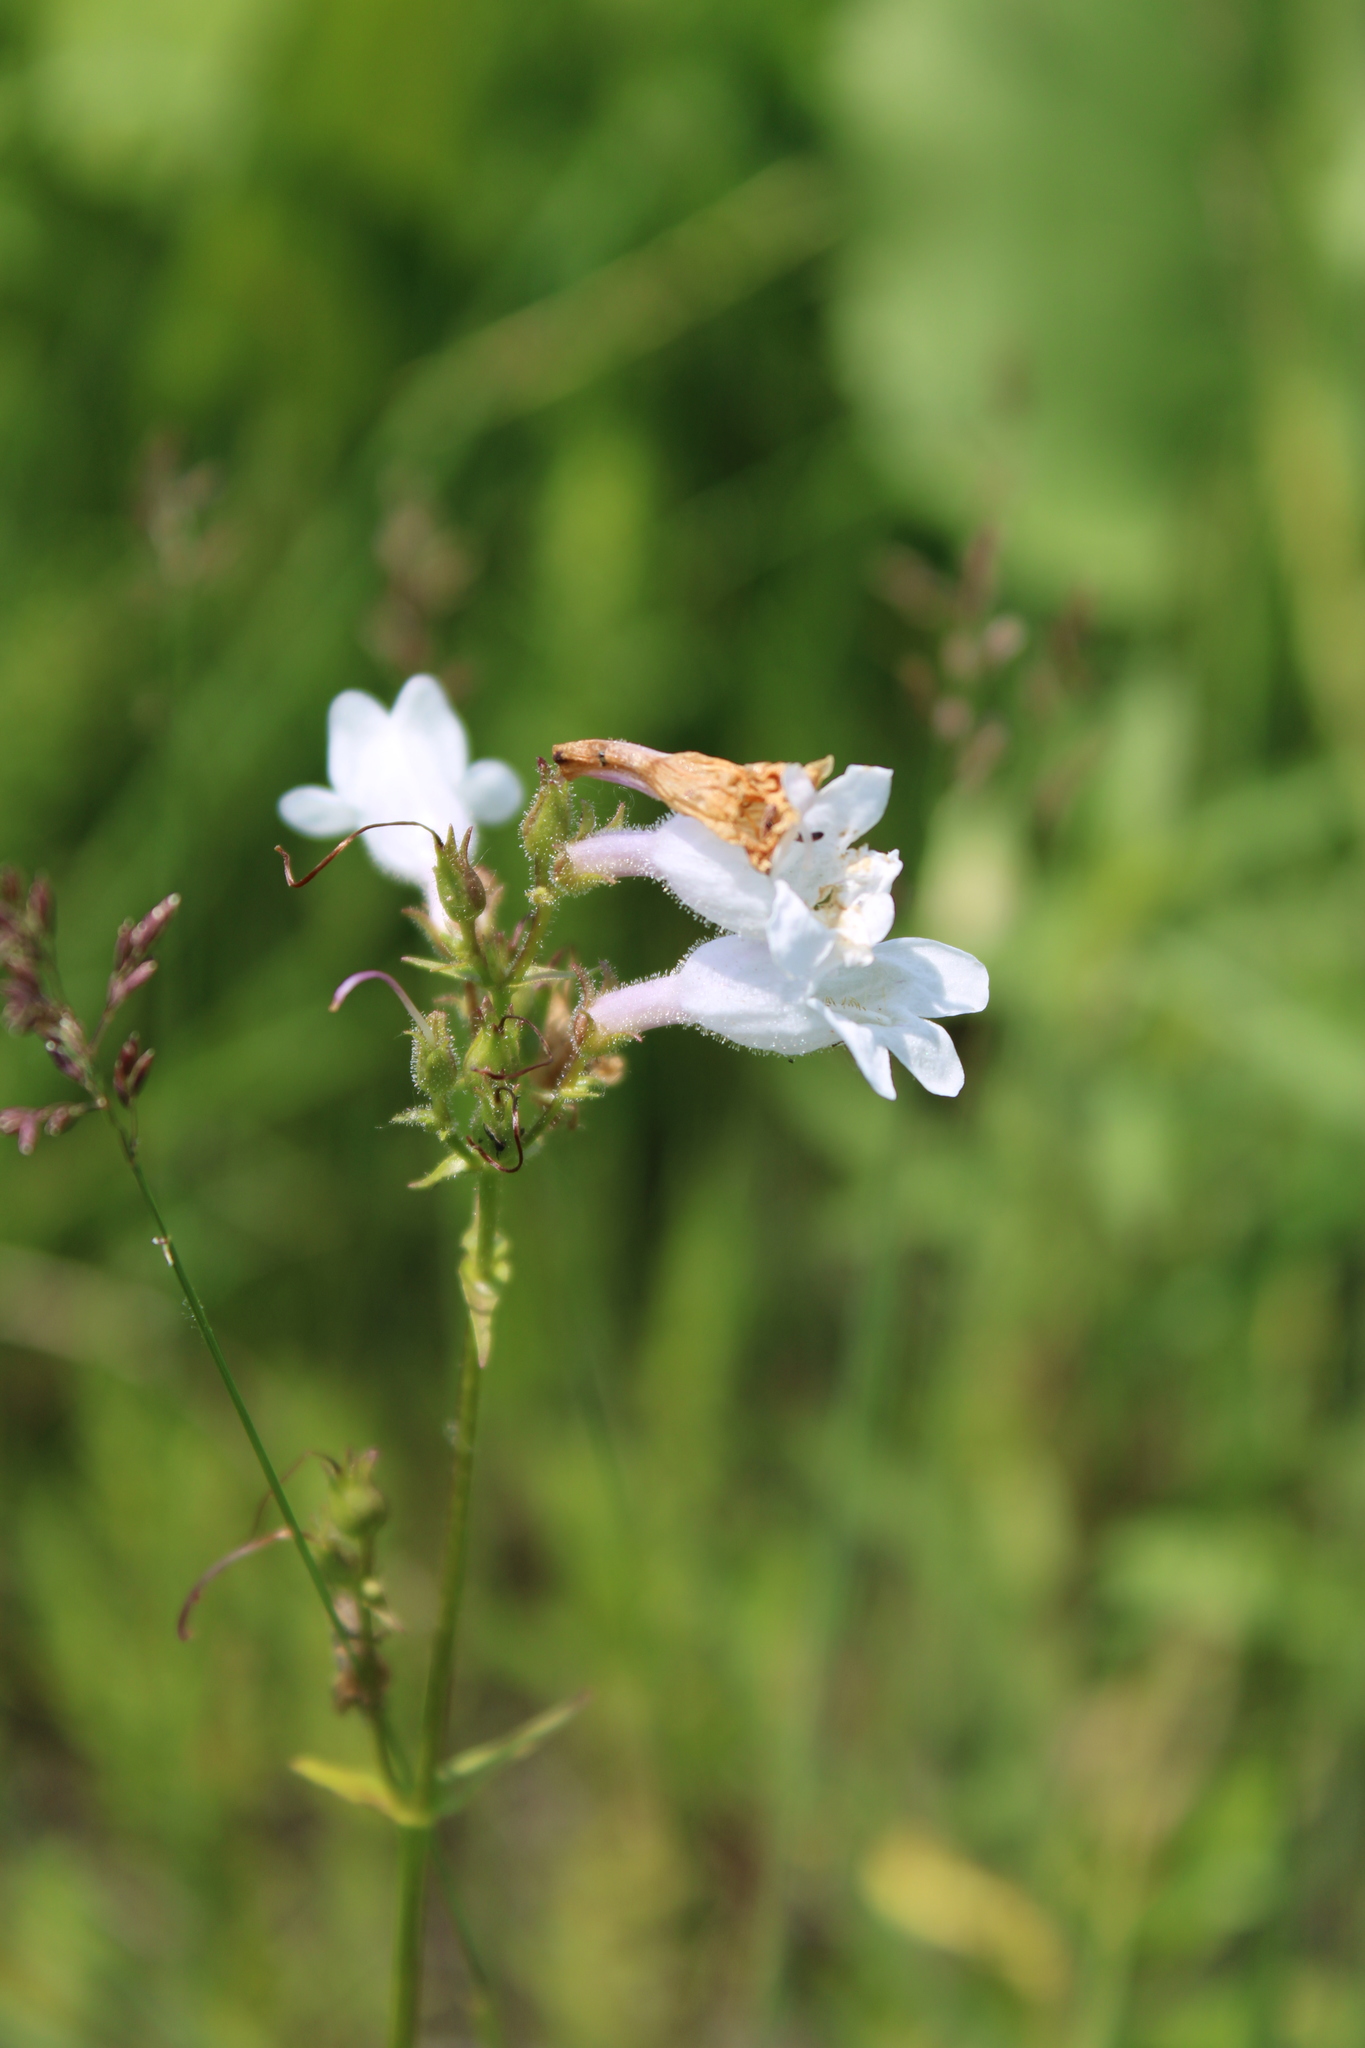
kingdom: Plantae
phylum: Tracheophyta
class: Magnoliopsida
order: Lamiales
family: Plantaginaceae
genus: Penstemon
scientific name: Penstemon digitalis
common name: Foxglove beardtongue
